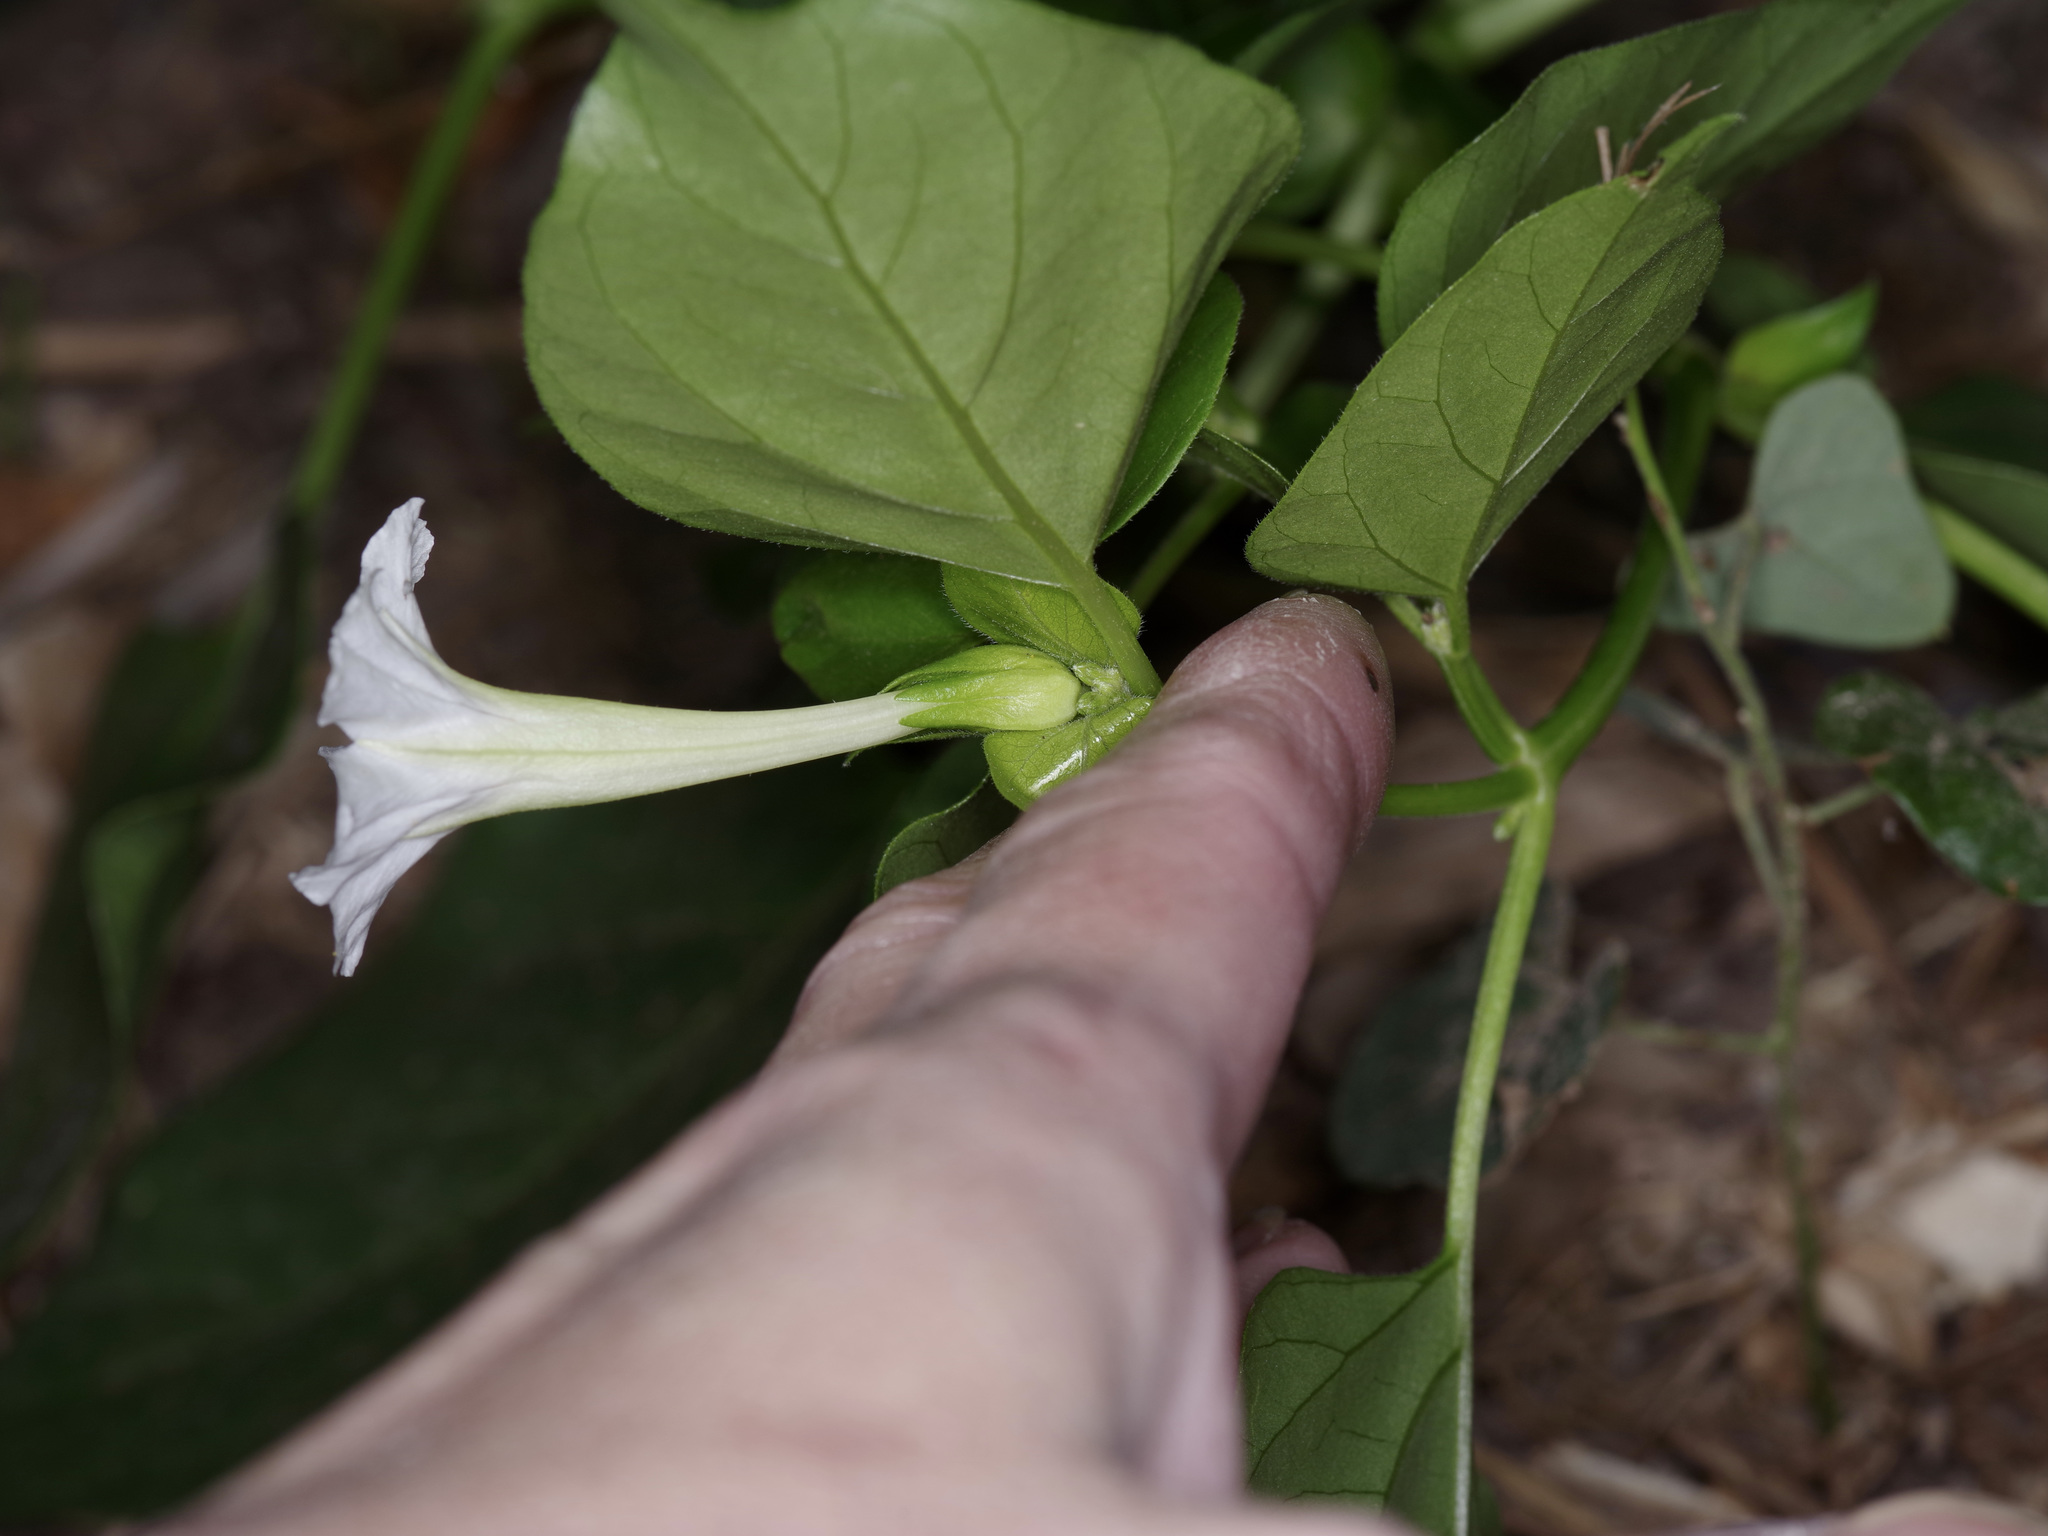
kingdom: Plantae
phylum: Tracheophyta
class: Magnoliopsida
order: Caryophyllales
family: Nyctaginaceae
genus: Mirabilis
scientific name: Mirabilis jalapa
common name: Marvel-of-peru
